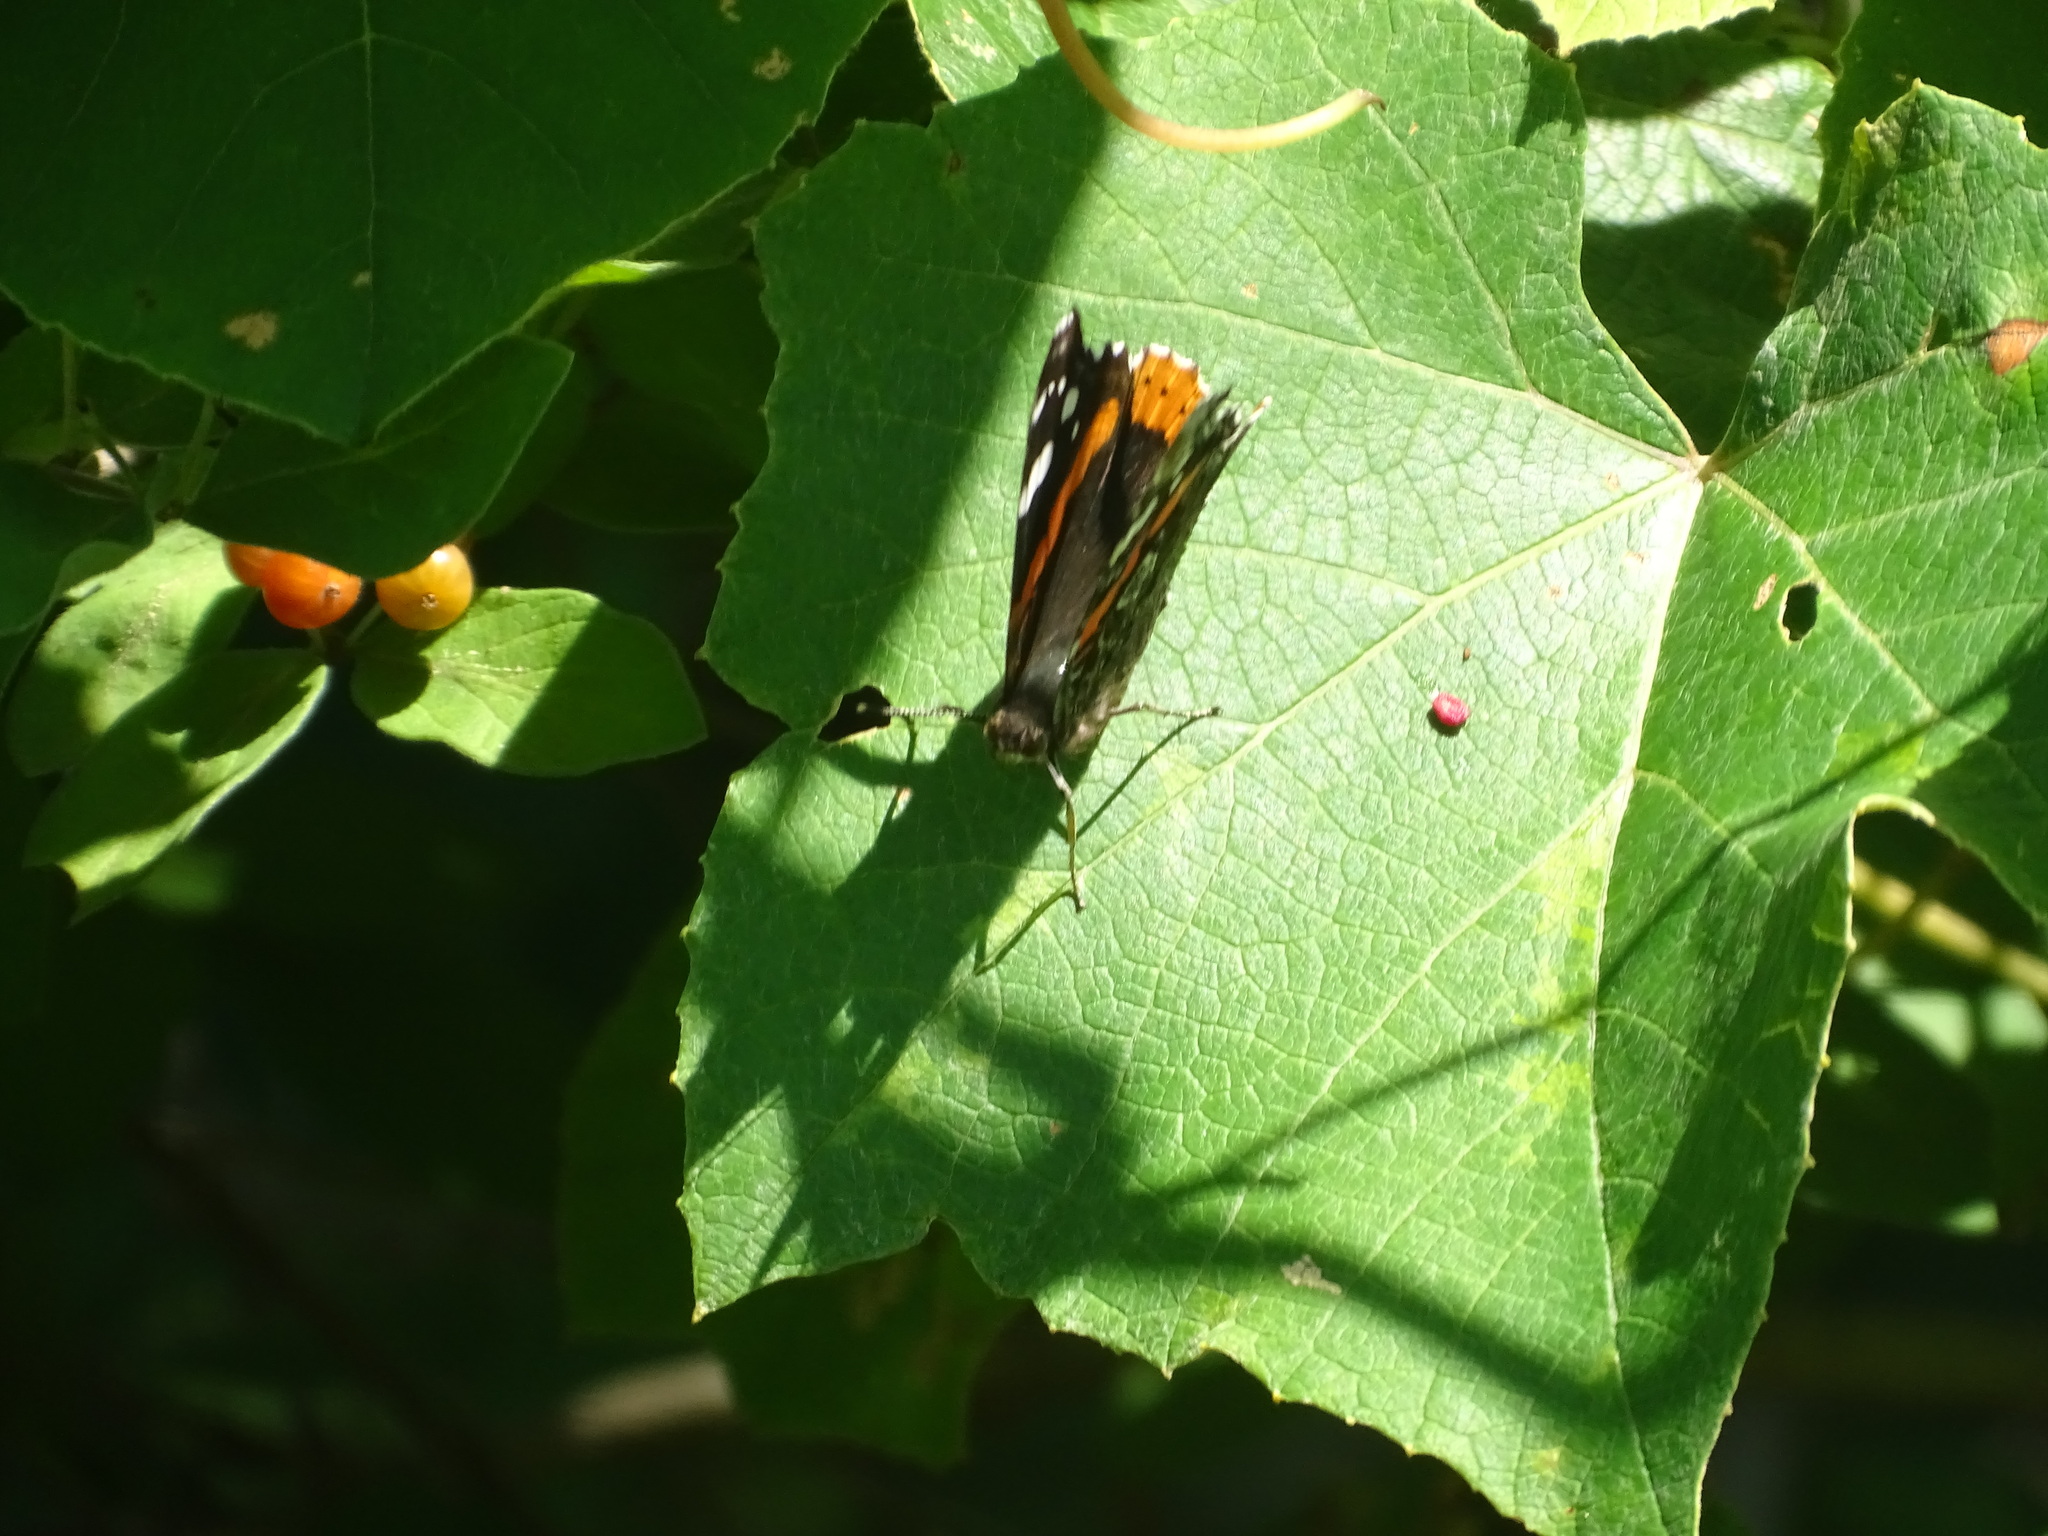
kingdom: Animalia
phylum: Arthropoda
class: Insecta
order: Lepidoptera
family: Nymphalidae
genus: Vanessa
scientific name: Vanessa atalanta
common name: Red admiral
